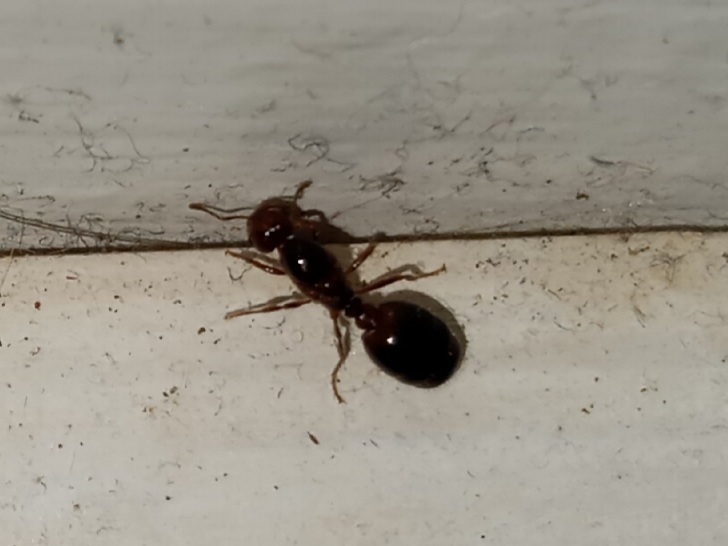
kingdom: Animalia
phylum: Arthropoda
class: Insecta
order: Hymenoptera
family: Formicidae
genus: Solenopsis
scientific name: Solenopsis invicta
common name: Red imported fire ant
